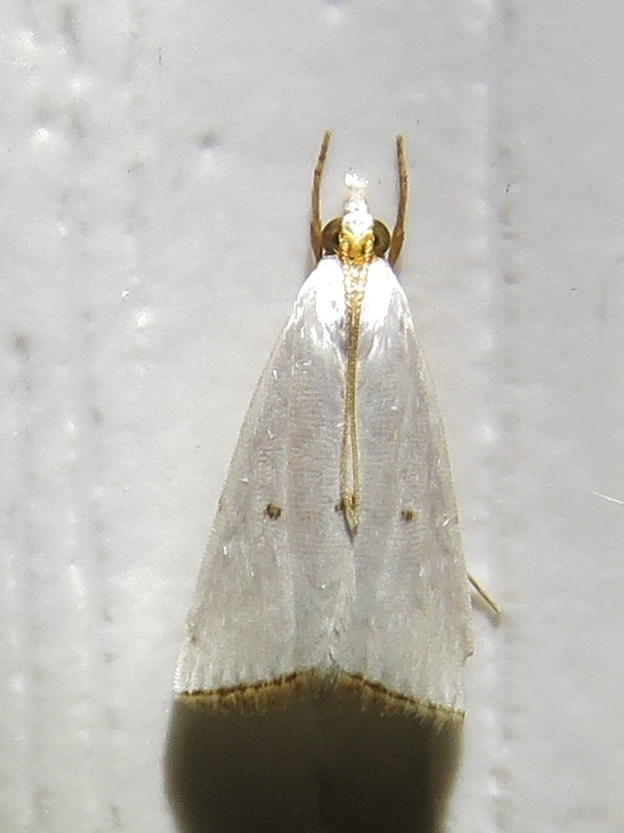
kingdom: Animalia
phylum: Arthropoda
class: Insecta
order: Lepidoptera
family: Crambidae
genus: Argyria
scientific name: Argyria pusillalis
